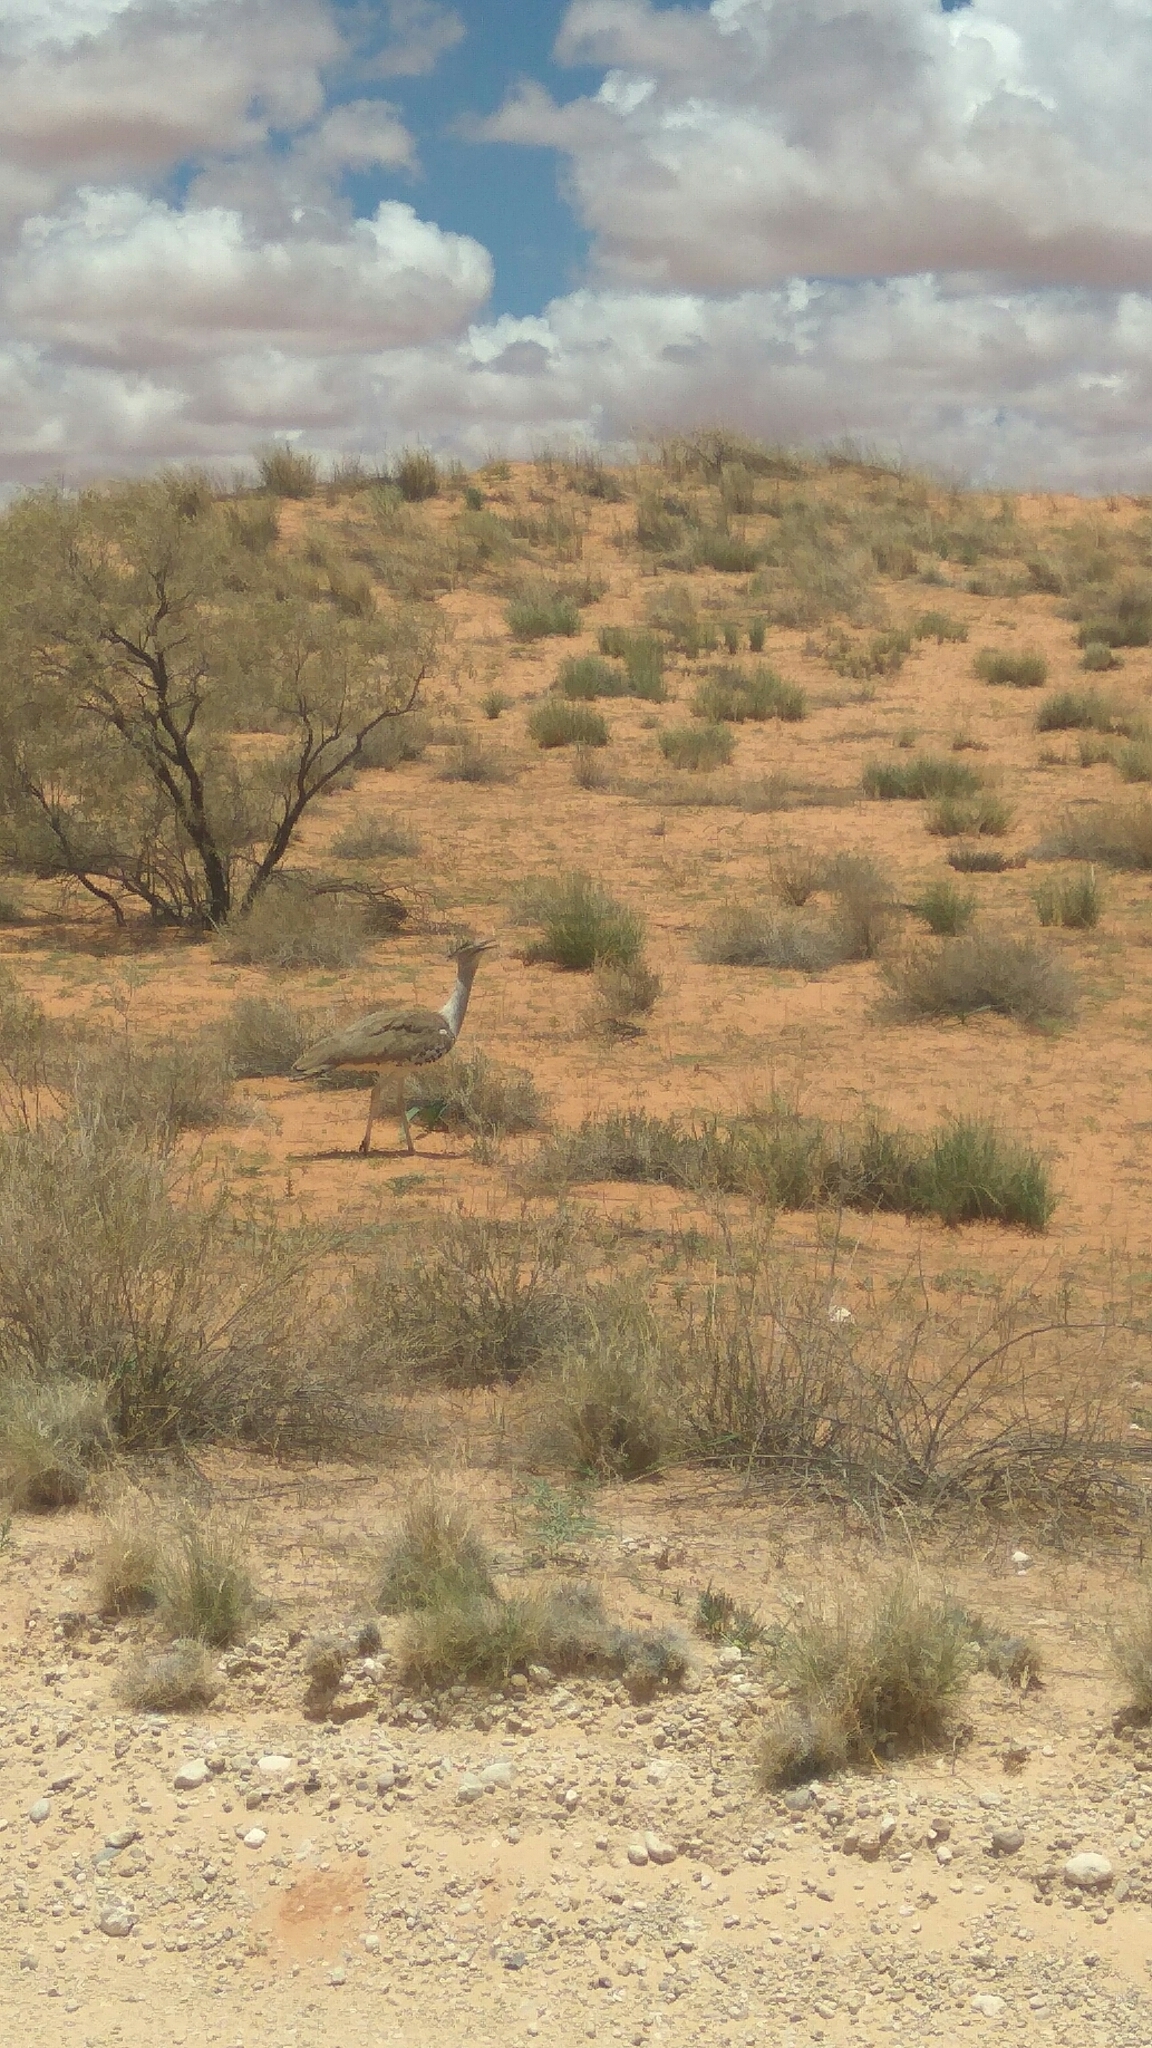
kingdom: Animalia
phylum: Chordata
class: Aves
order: Otidiformes
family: Otididae
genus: Ardeotis
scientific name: Ardeotis kori
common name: Kori bustard
